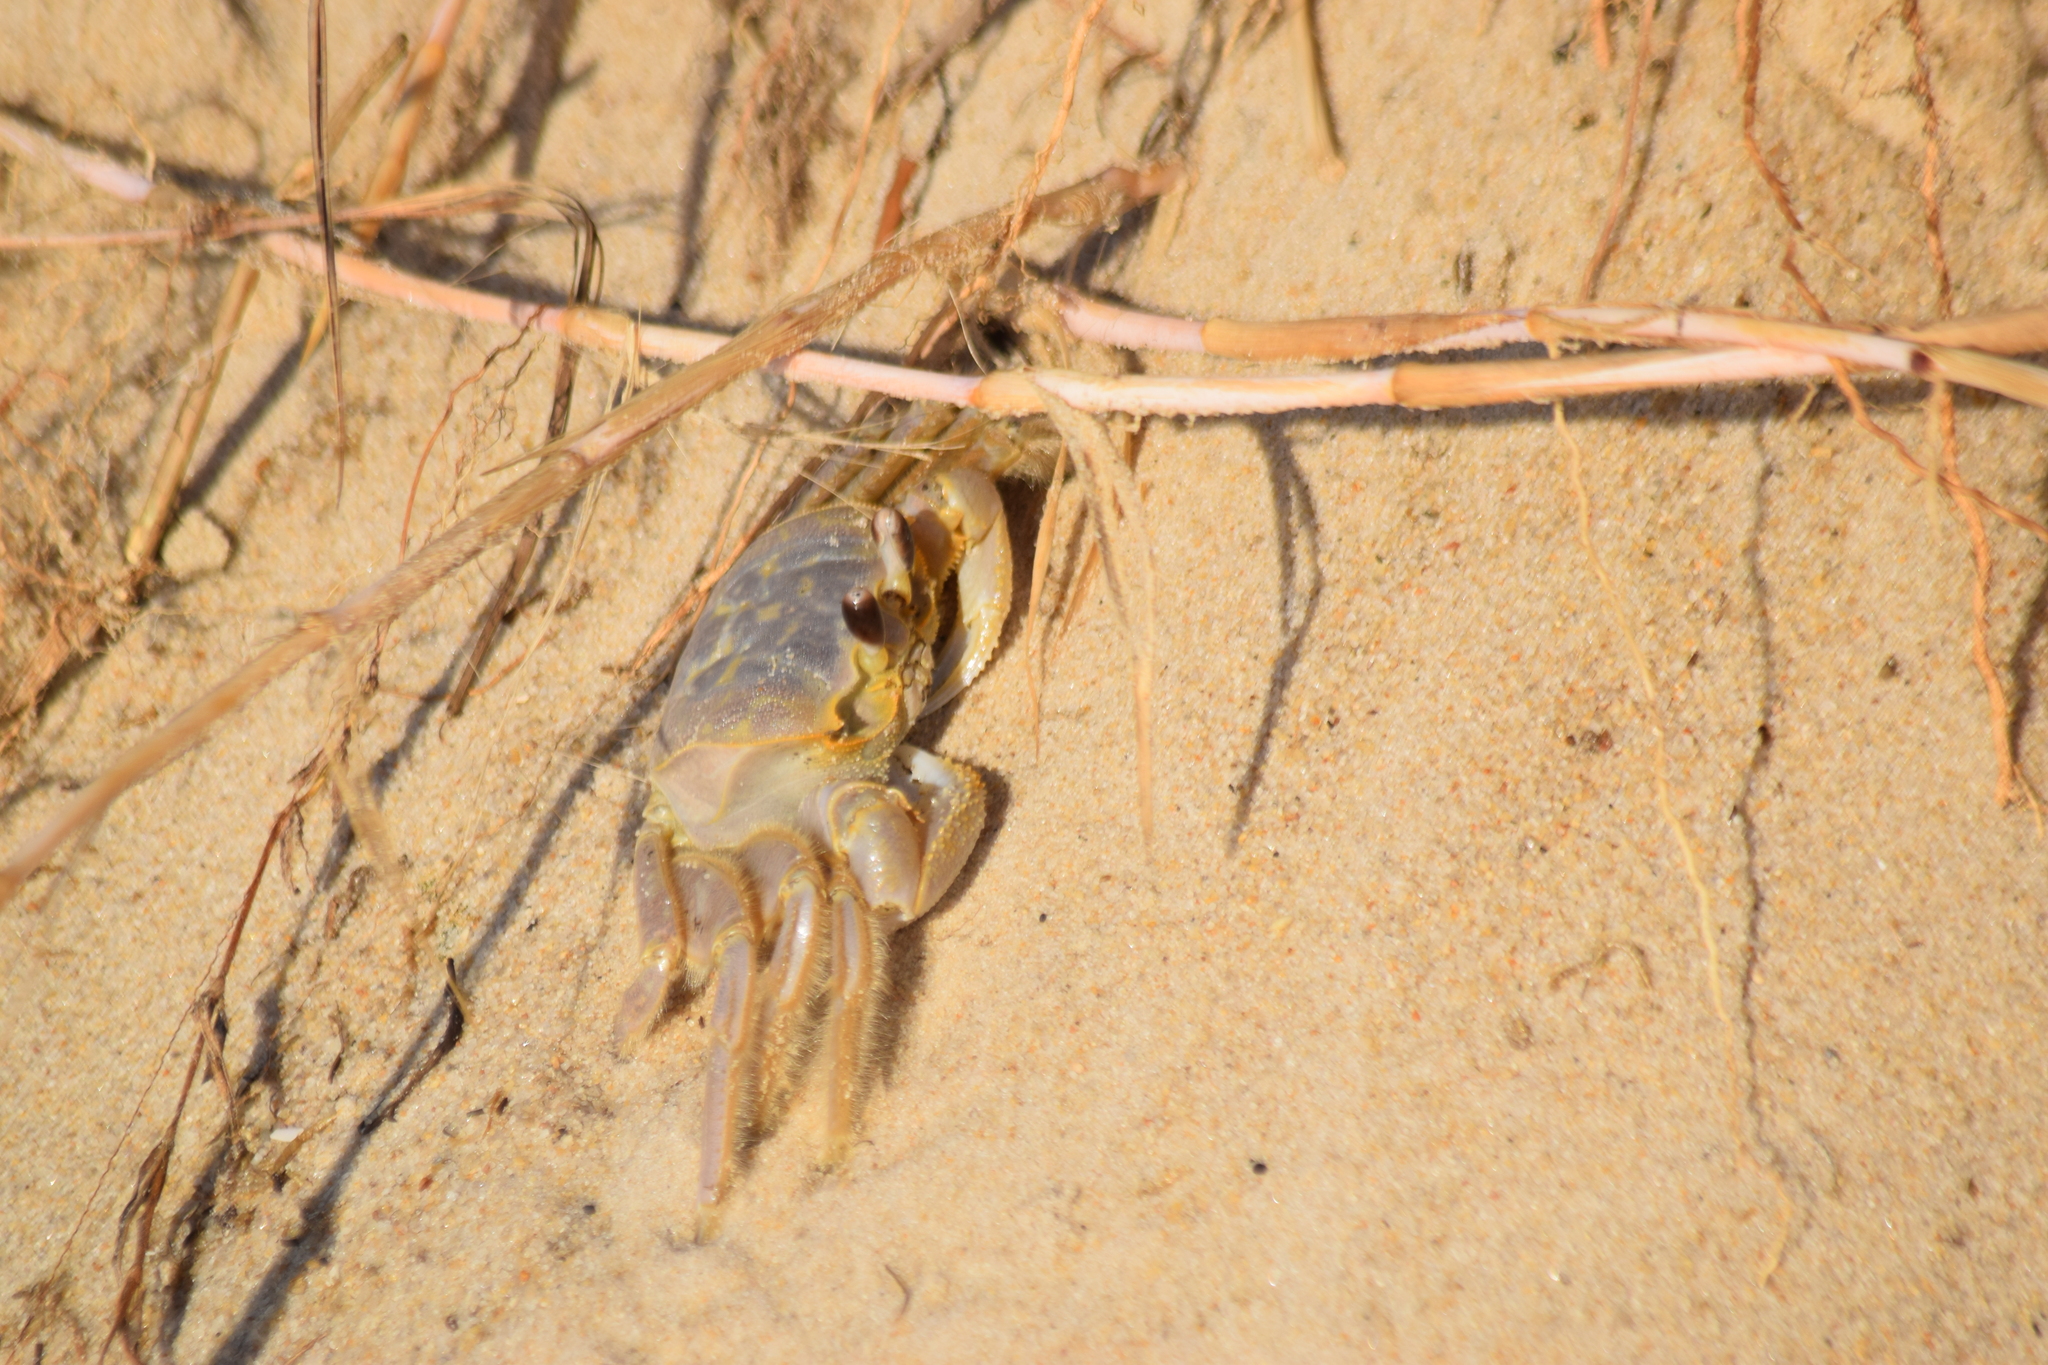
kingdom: Animalia
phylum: Arthropoda
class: Malacostraca
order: Decapoda
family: Ocypodidae
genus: Ocypode
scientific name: Ocypode quadrata
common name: Ghost crab
